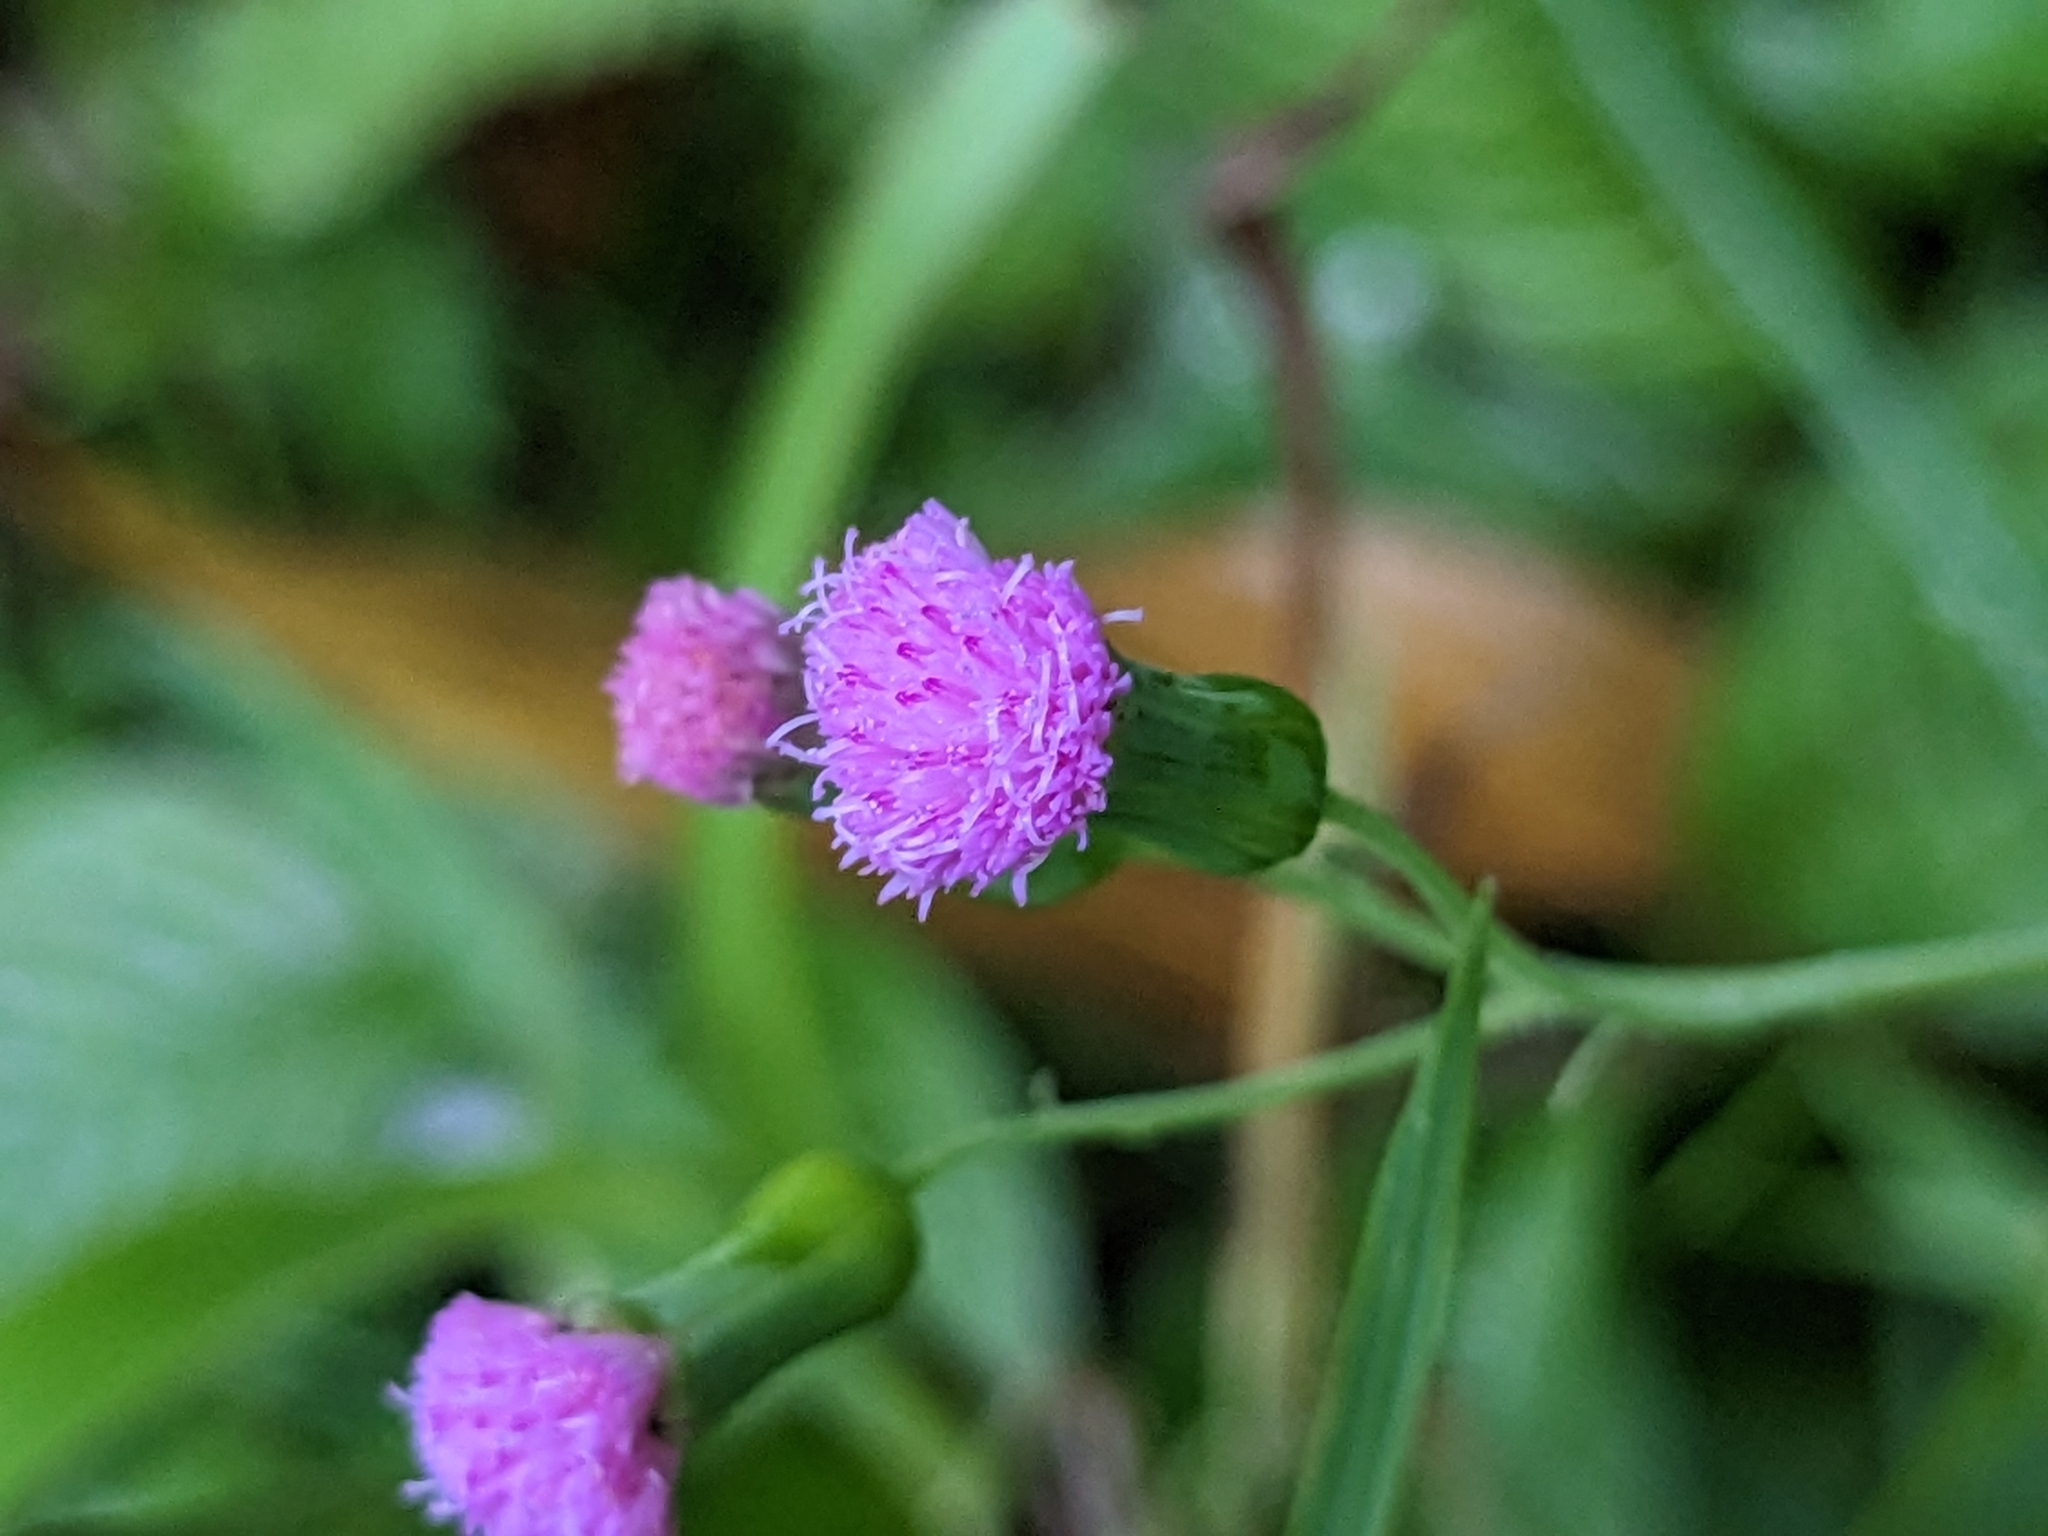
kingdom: Plantae
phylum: Tracheophyta
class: Magnoliopsida
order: Asterales
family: Asteraceae
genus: Emilia
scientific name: Emilia sonchifolia
